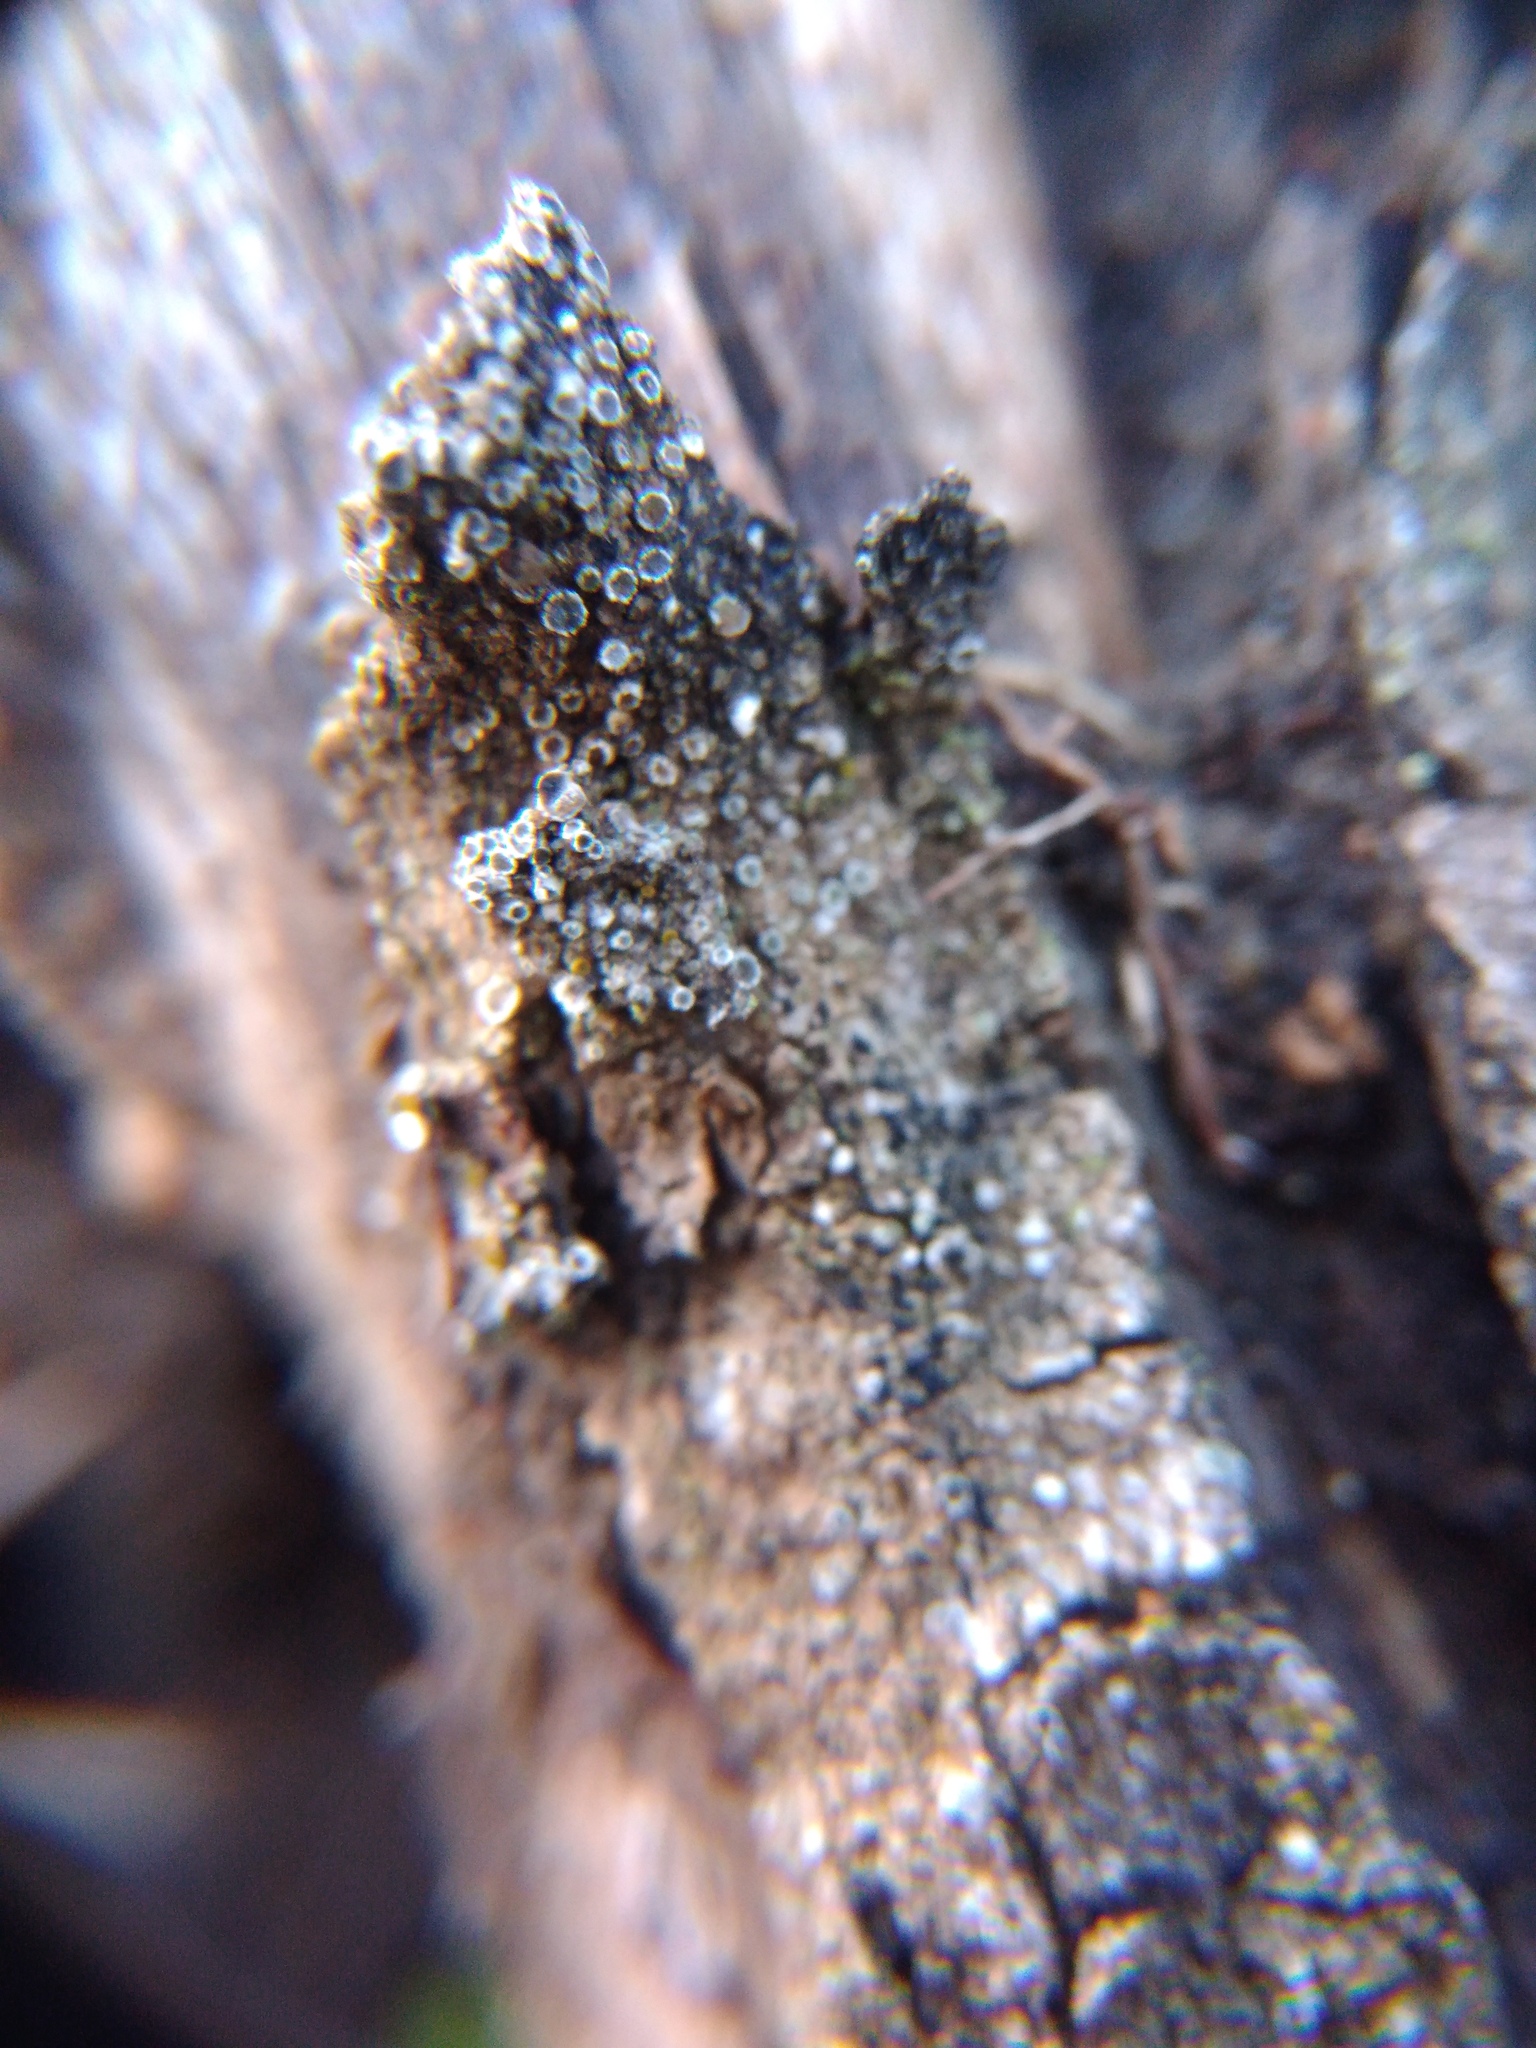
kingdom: Fungi
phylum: Ascomycota
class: Lecanoromycetes
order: Lecanorales
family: Lecanoraceae
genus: Polyozosia
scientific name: Polyozosia hagenii
